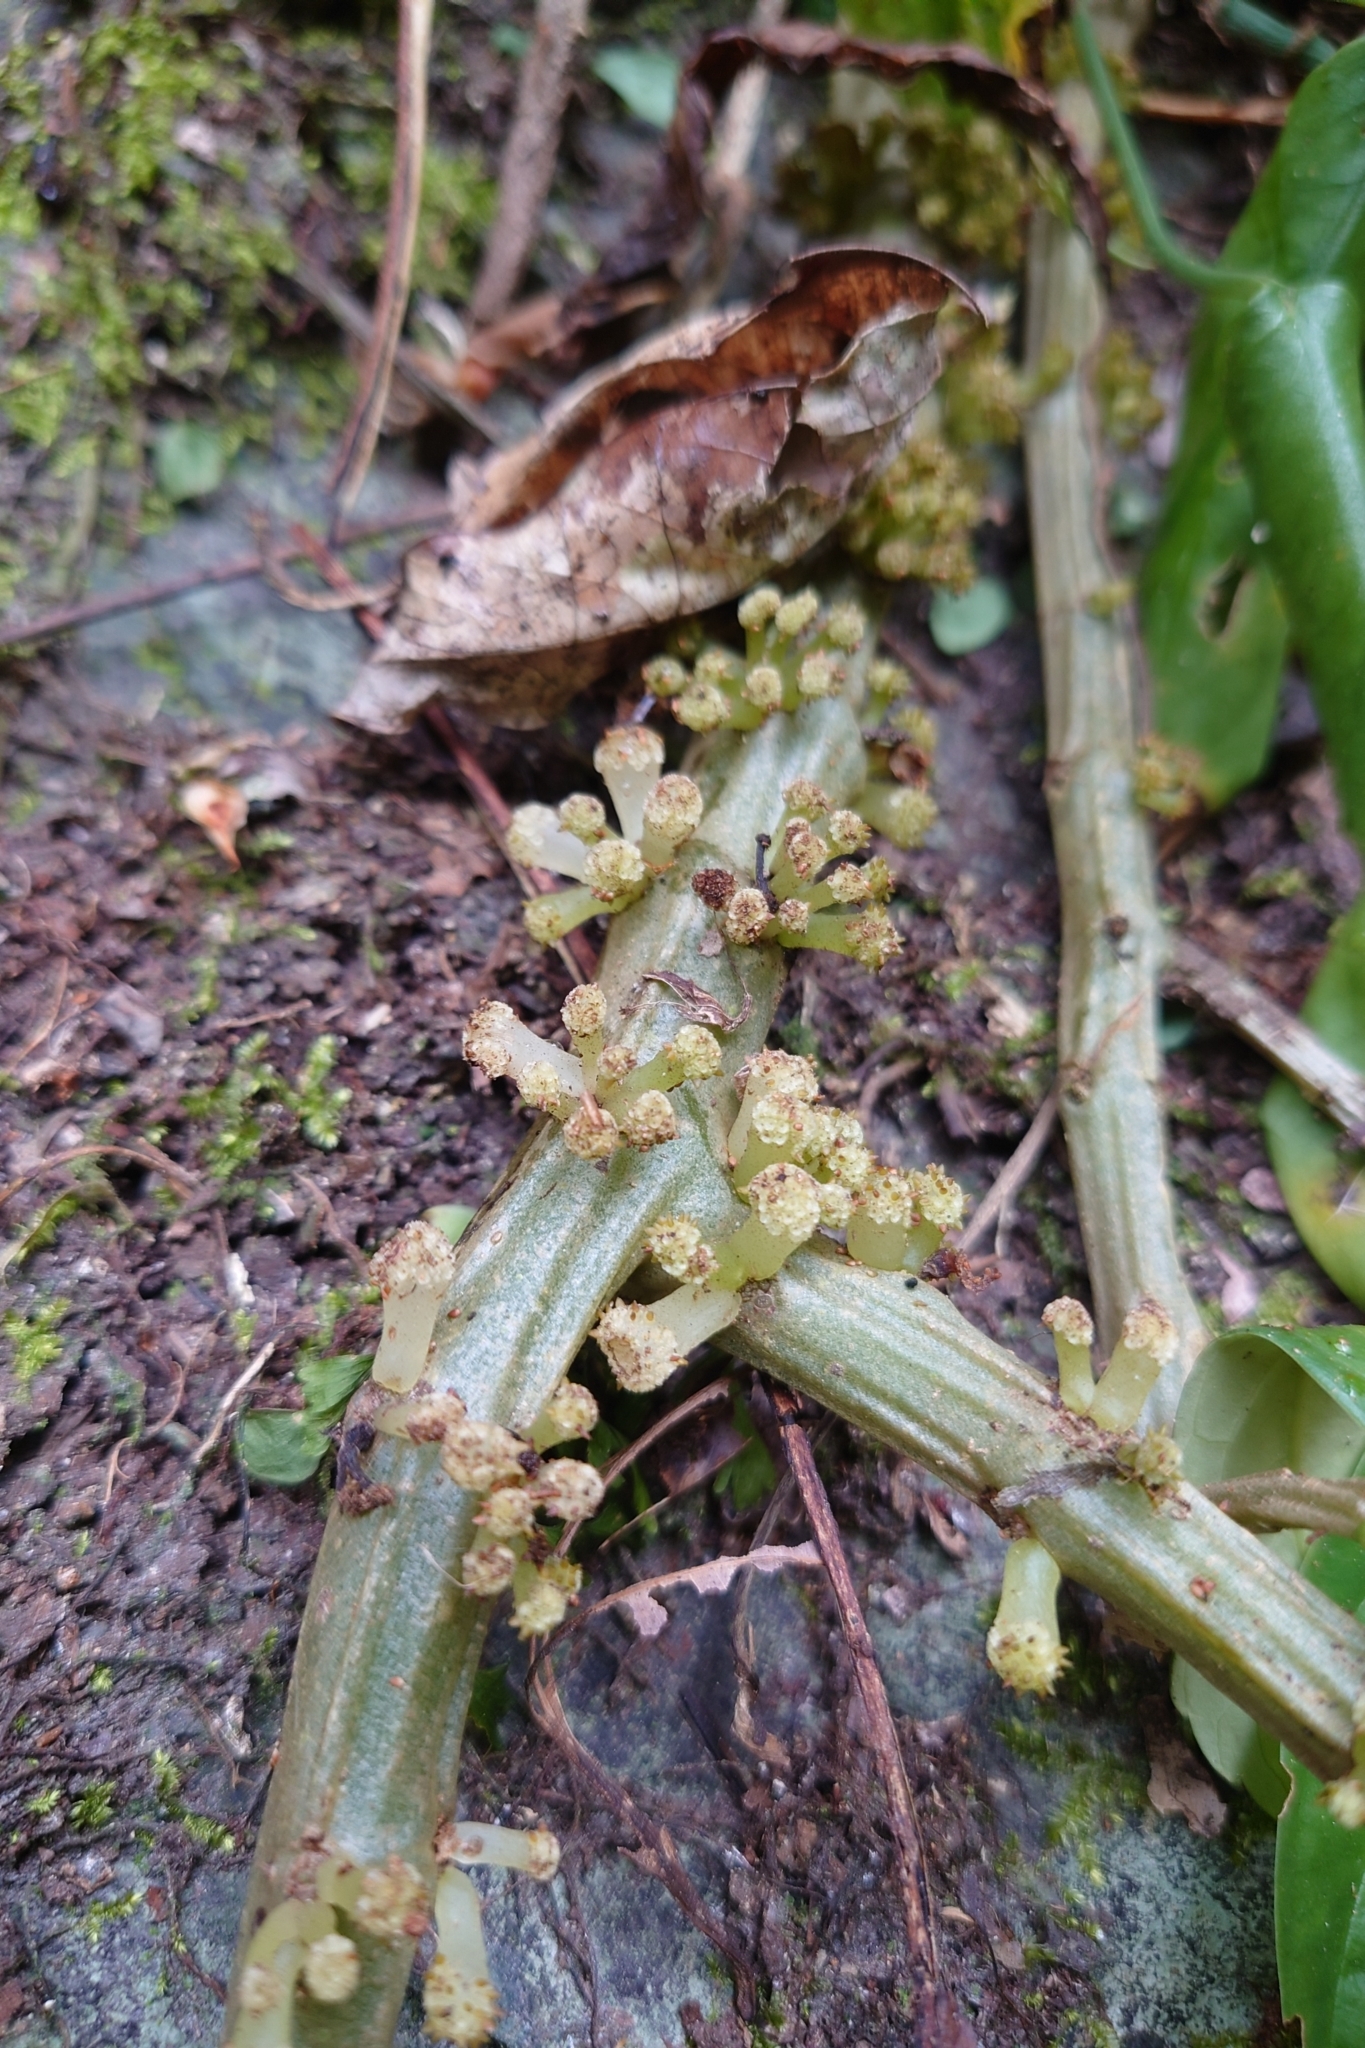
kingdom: Plantae
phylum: Tracheophyta
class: Magnoliopsida
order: Rosales
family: Urticaceae
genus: Procris
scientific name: Procris
